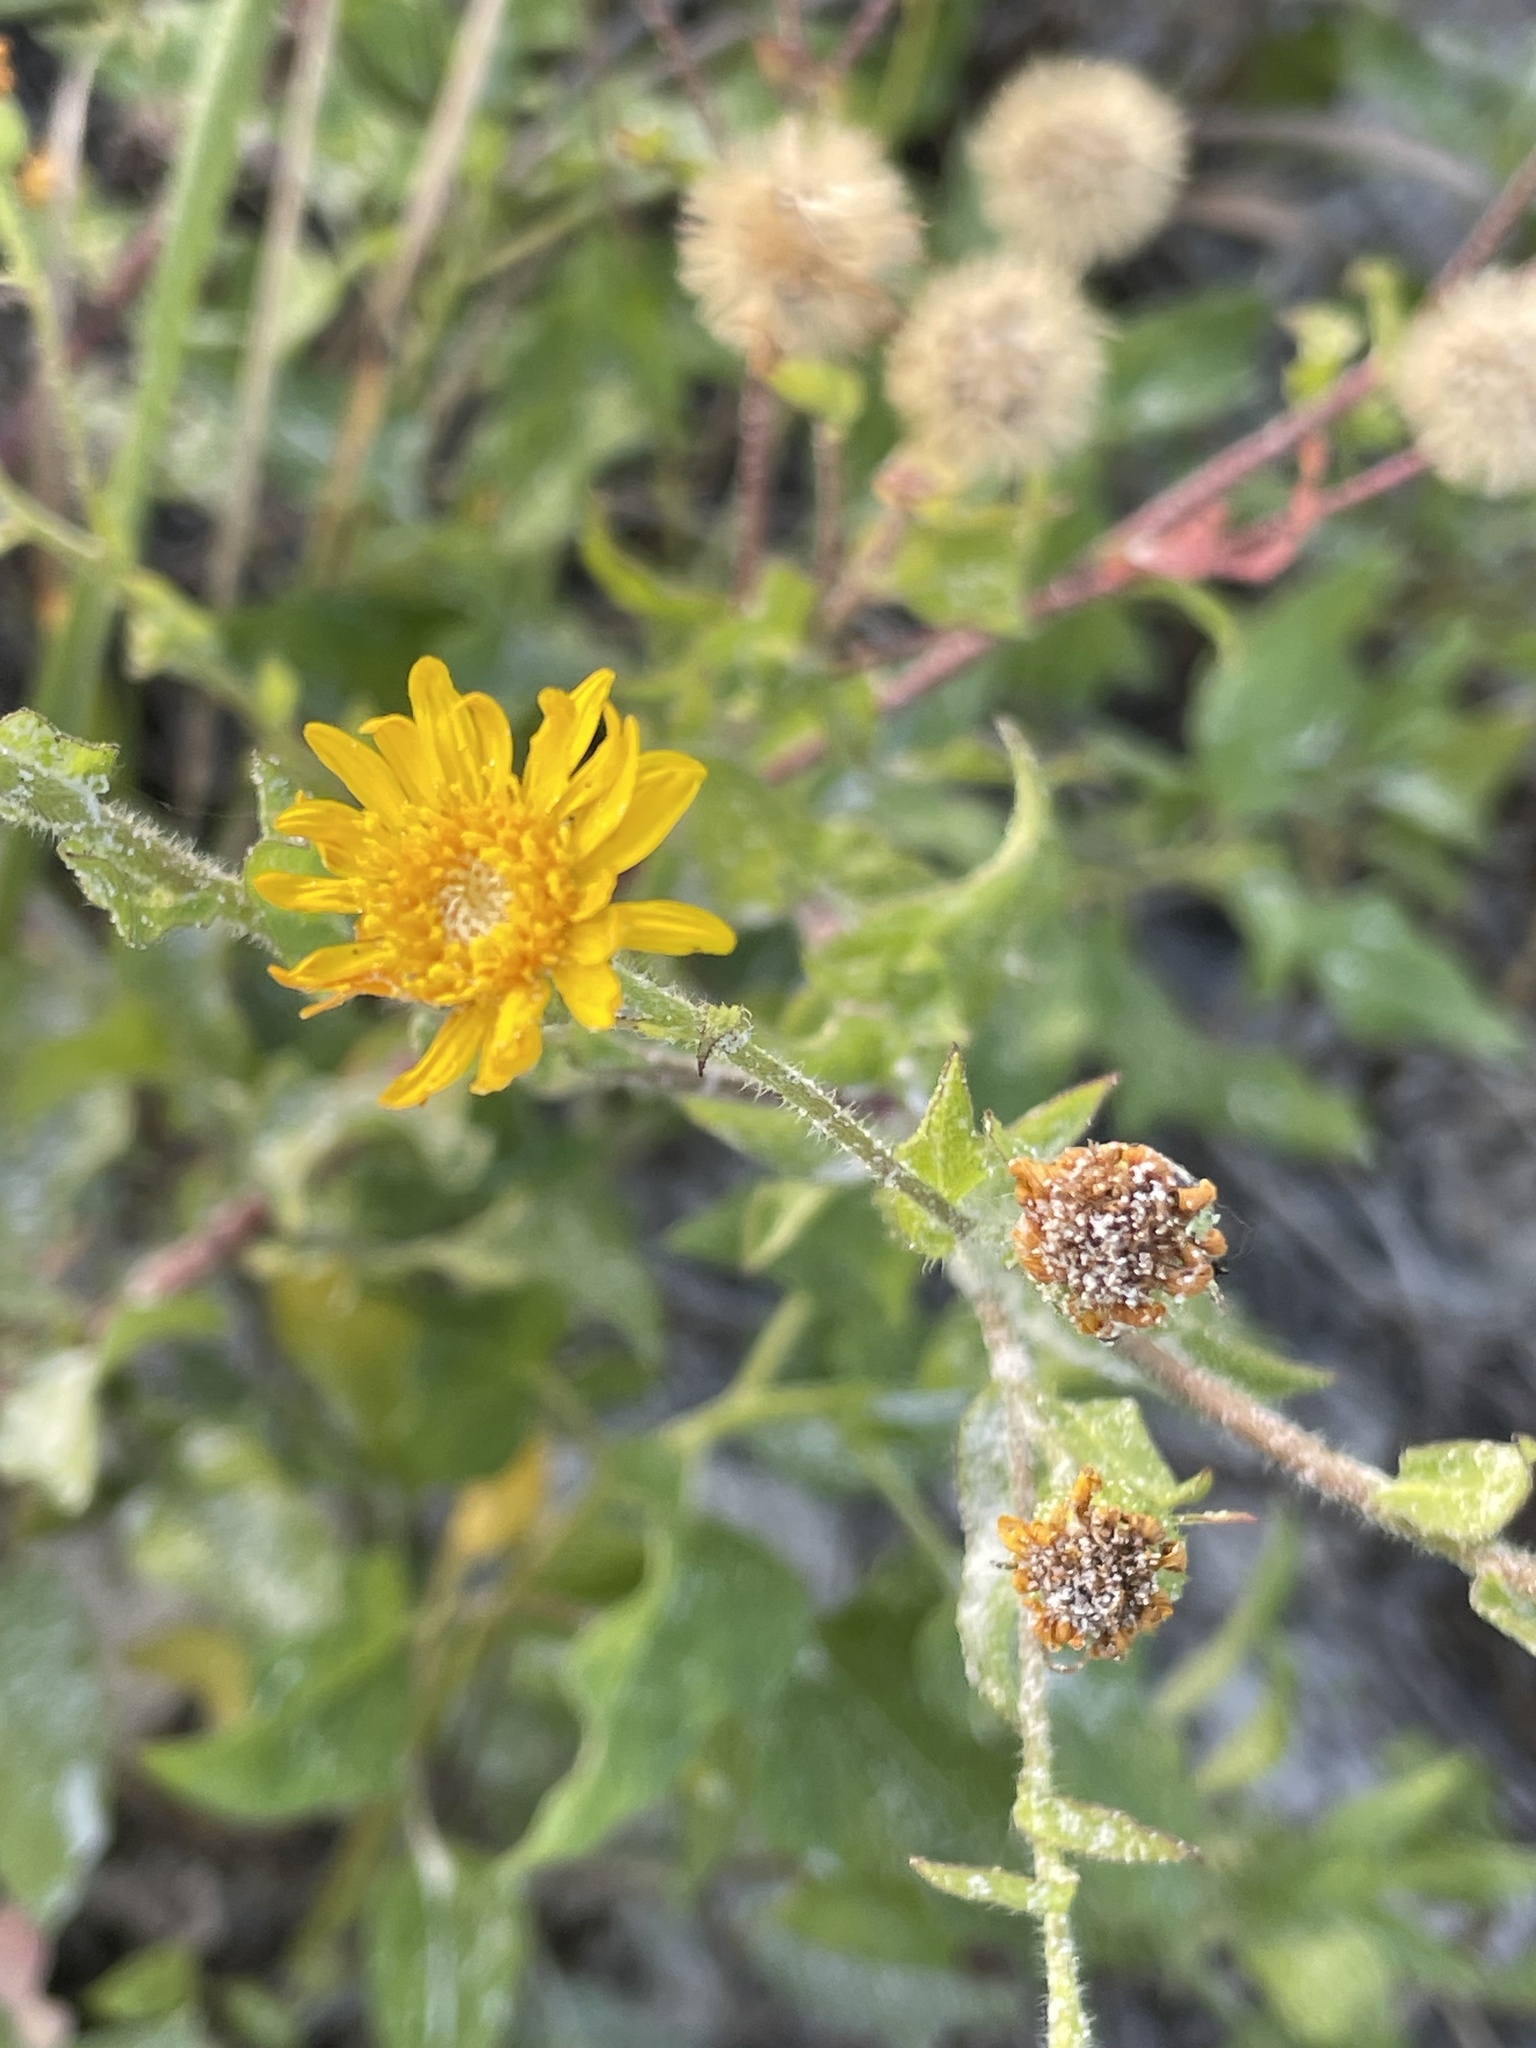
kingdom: Plantae
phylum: Tracheophyta
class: Magnoliopsida
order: Asterales
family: Asteraceae
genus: Heterotheca
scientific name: Heterotheca subaxillaris
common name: Camphorweed
